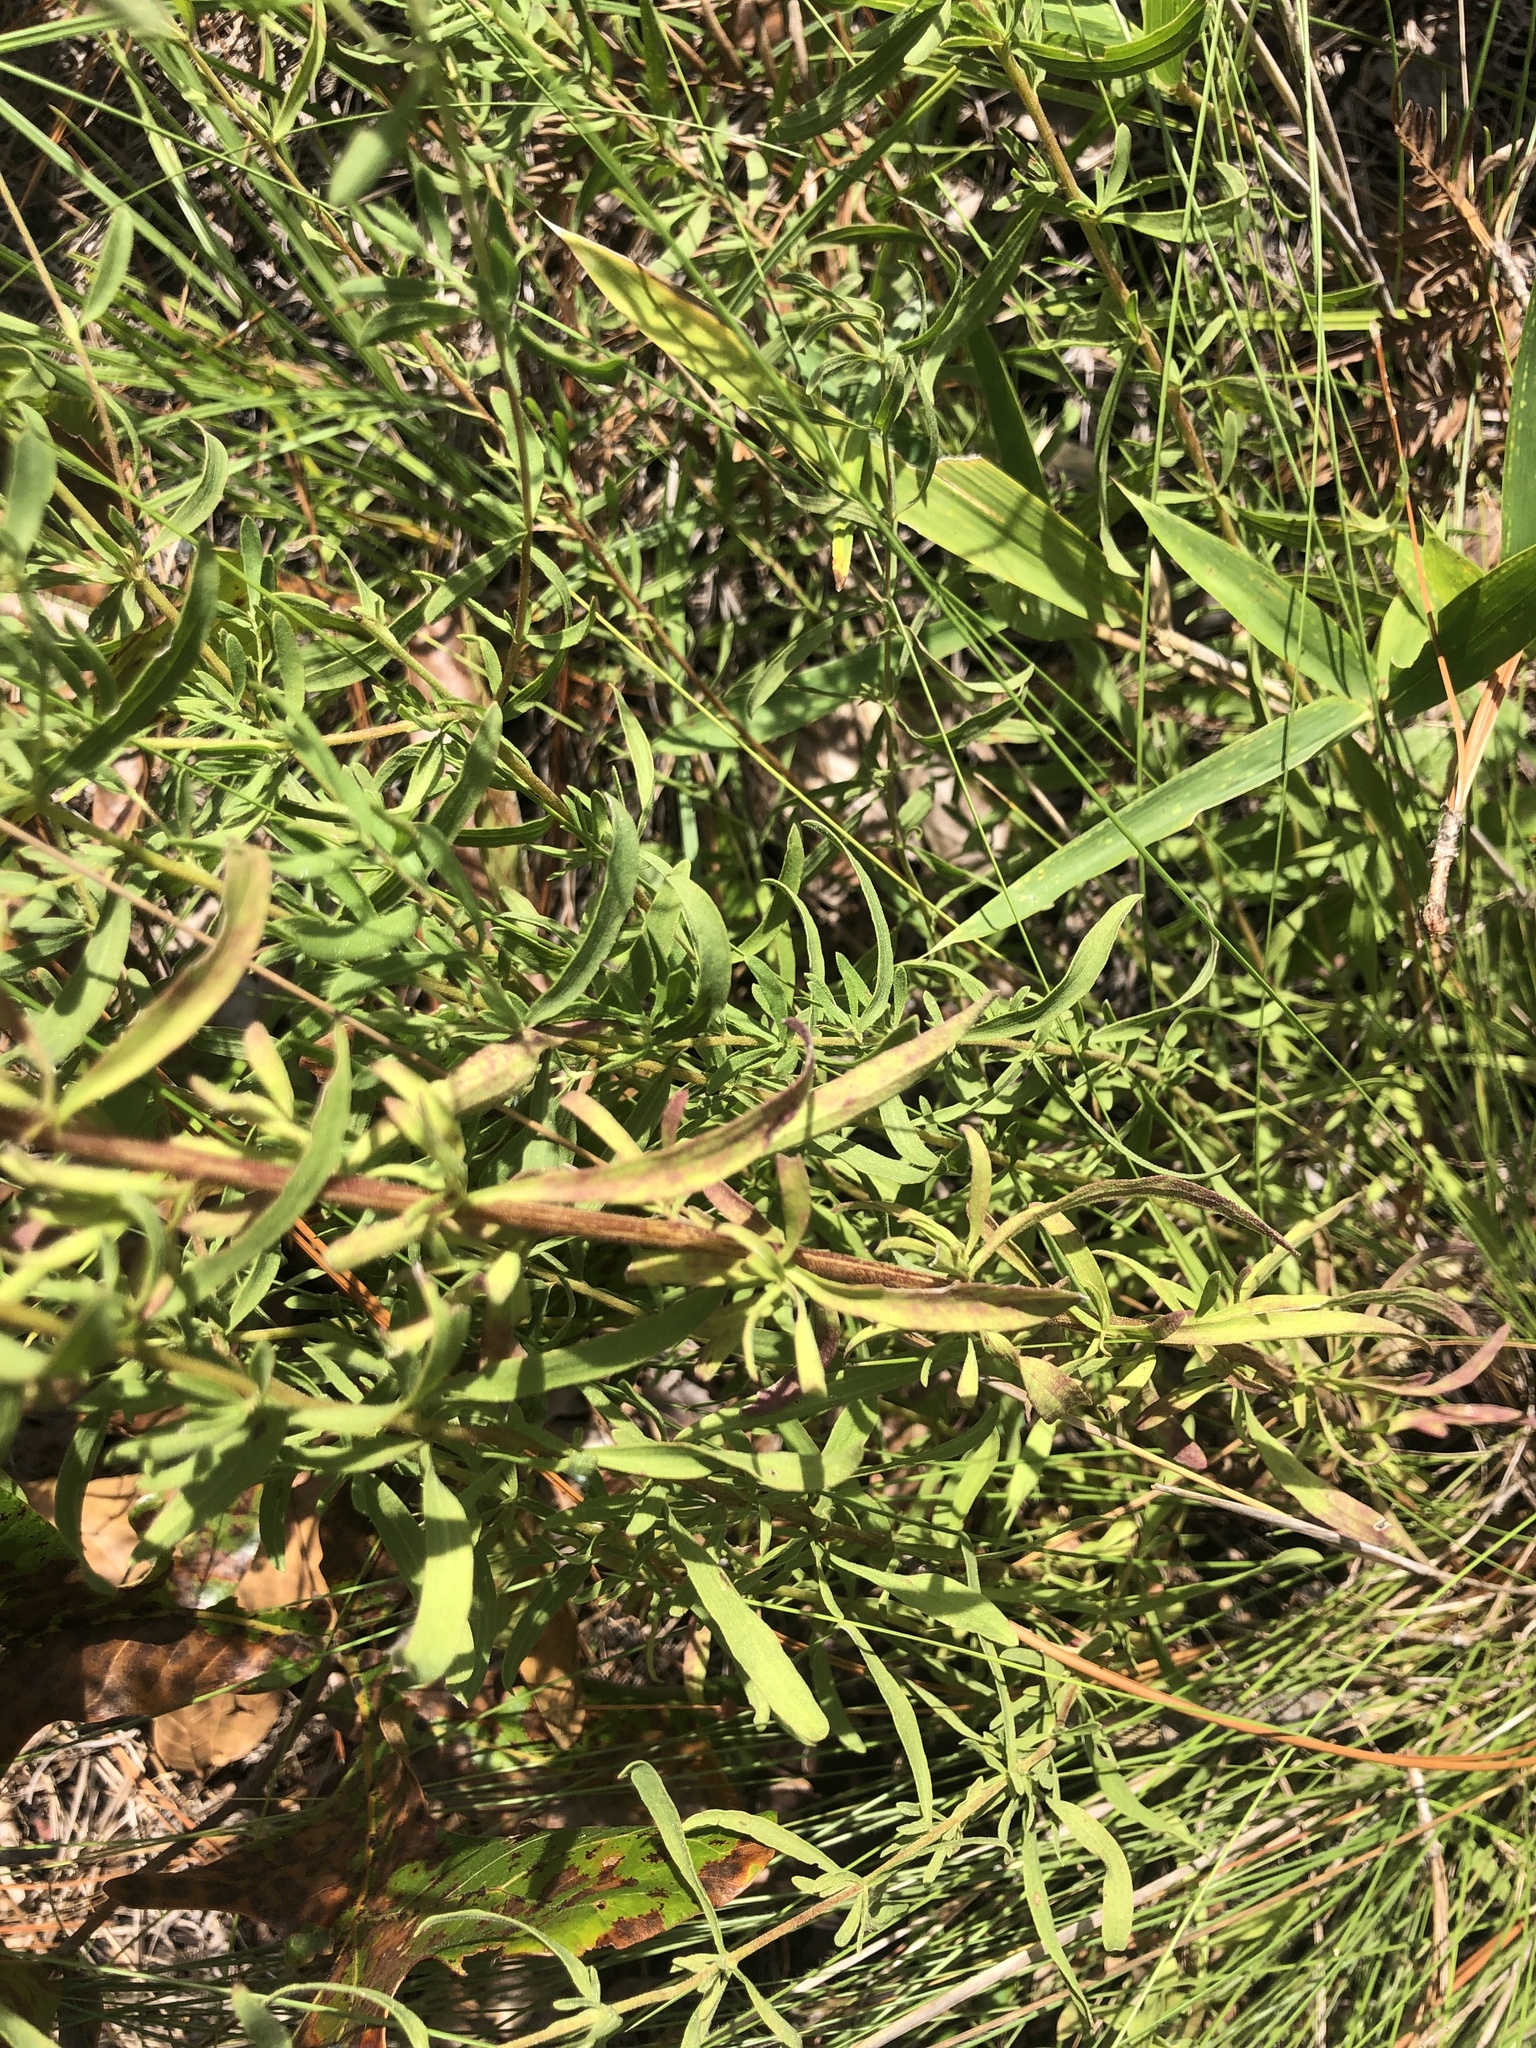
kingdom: Plantae
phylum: Tracheophyta
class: Magnoliopsida
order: Asterales
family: Asteraceae
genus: Eupatorium
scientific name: Eupatorium linearifolium
